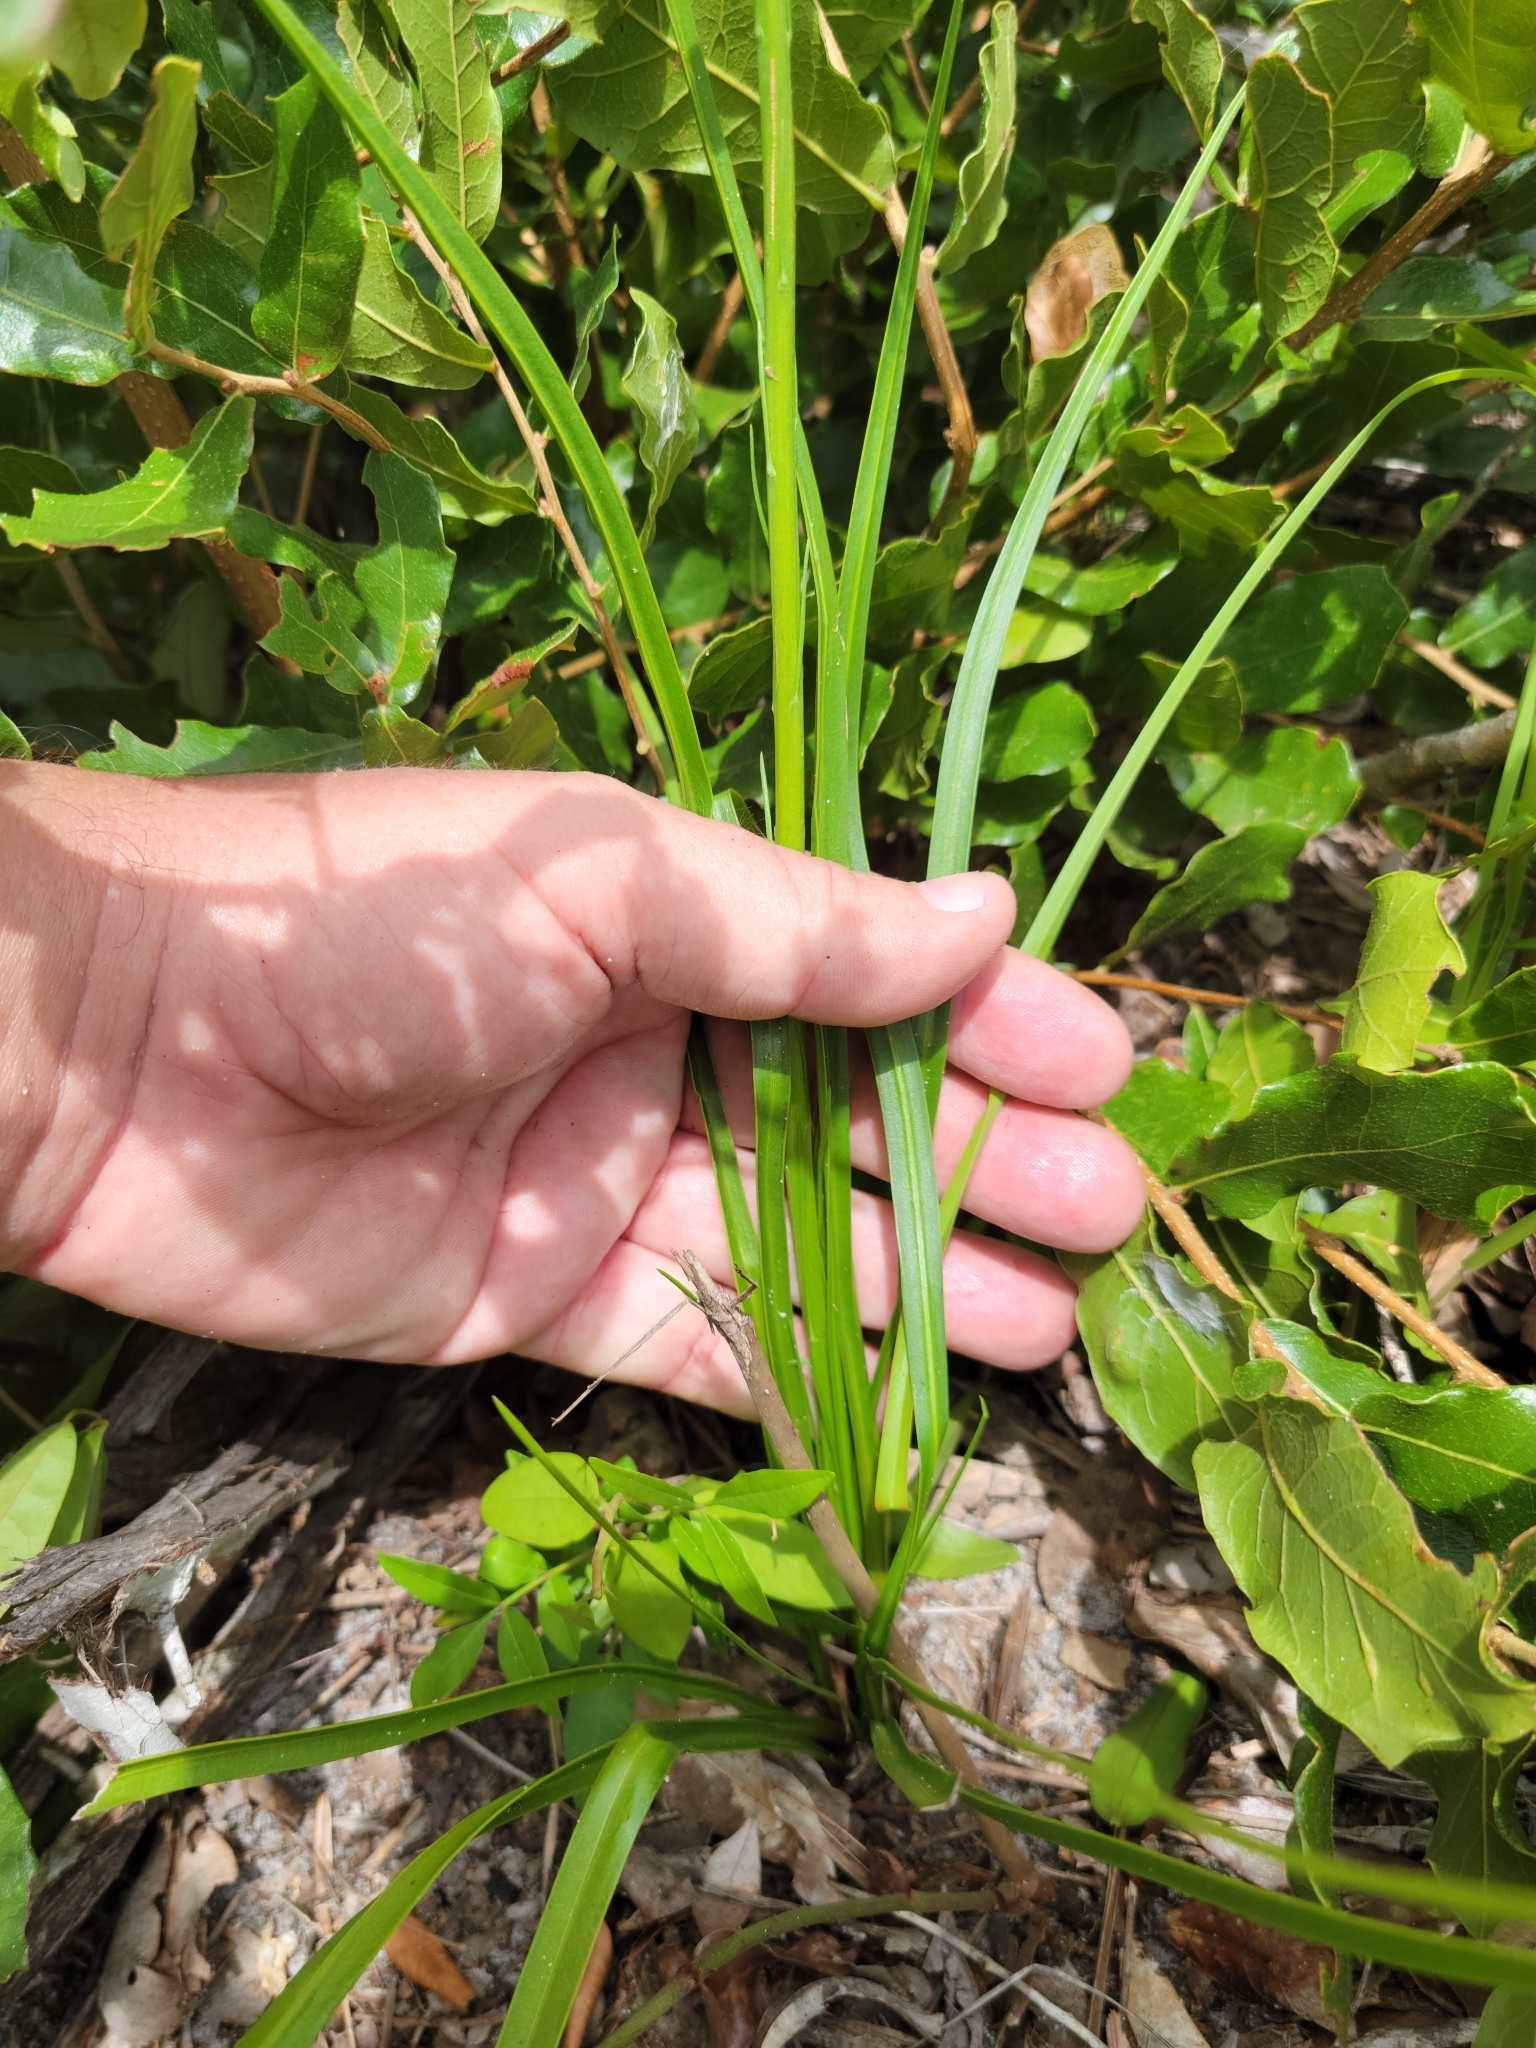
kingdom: Plantae
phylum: Tracheophyta
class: Magnoliopsida
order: Asterales
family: Asteraceae
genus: Liatris
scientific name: Liatris laevigata
